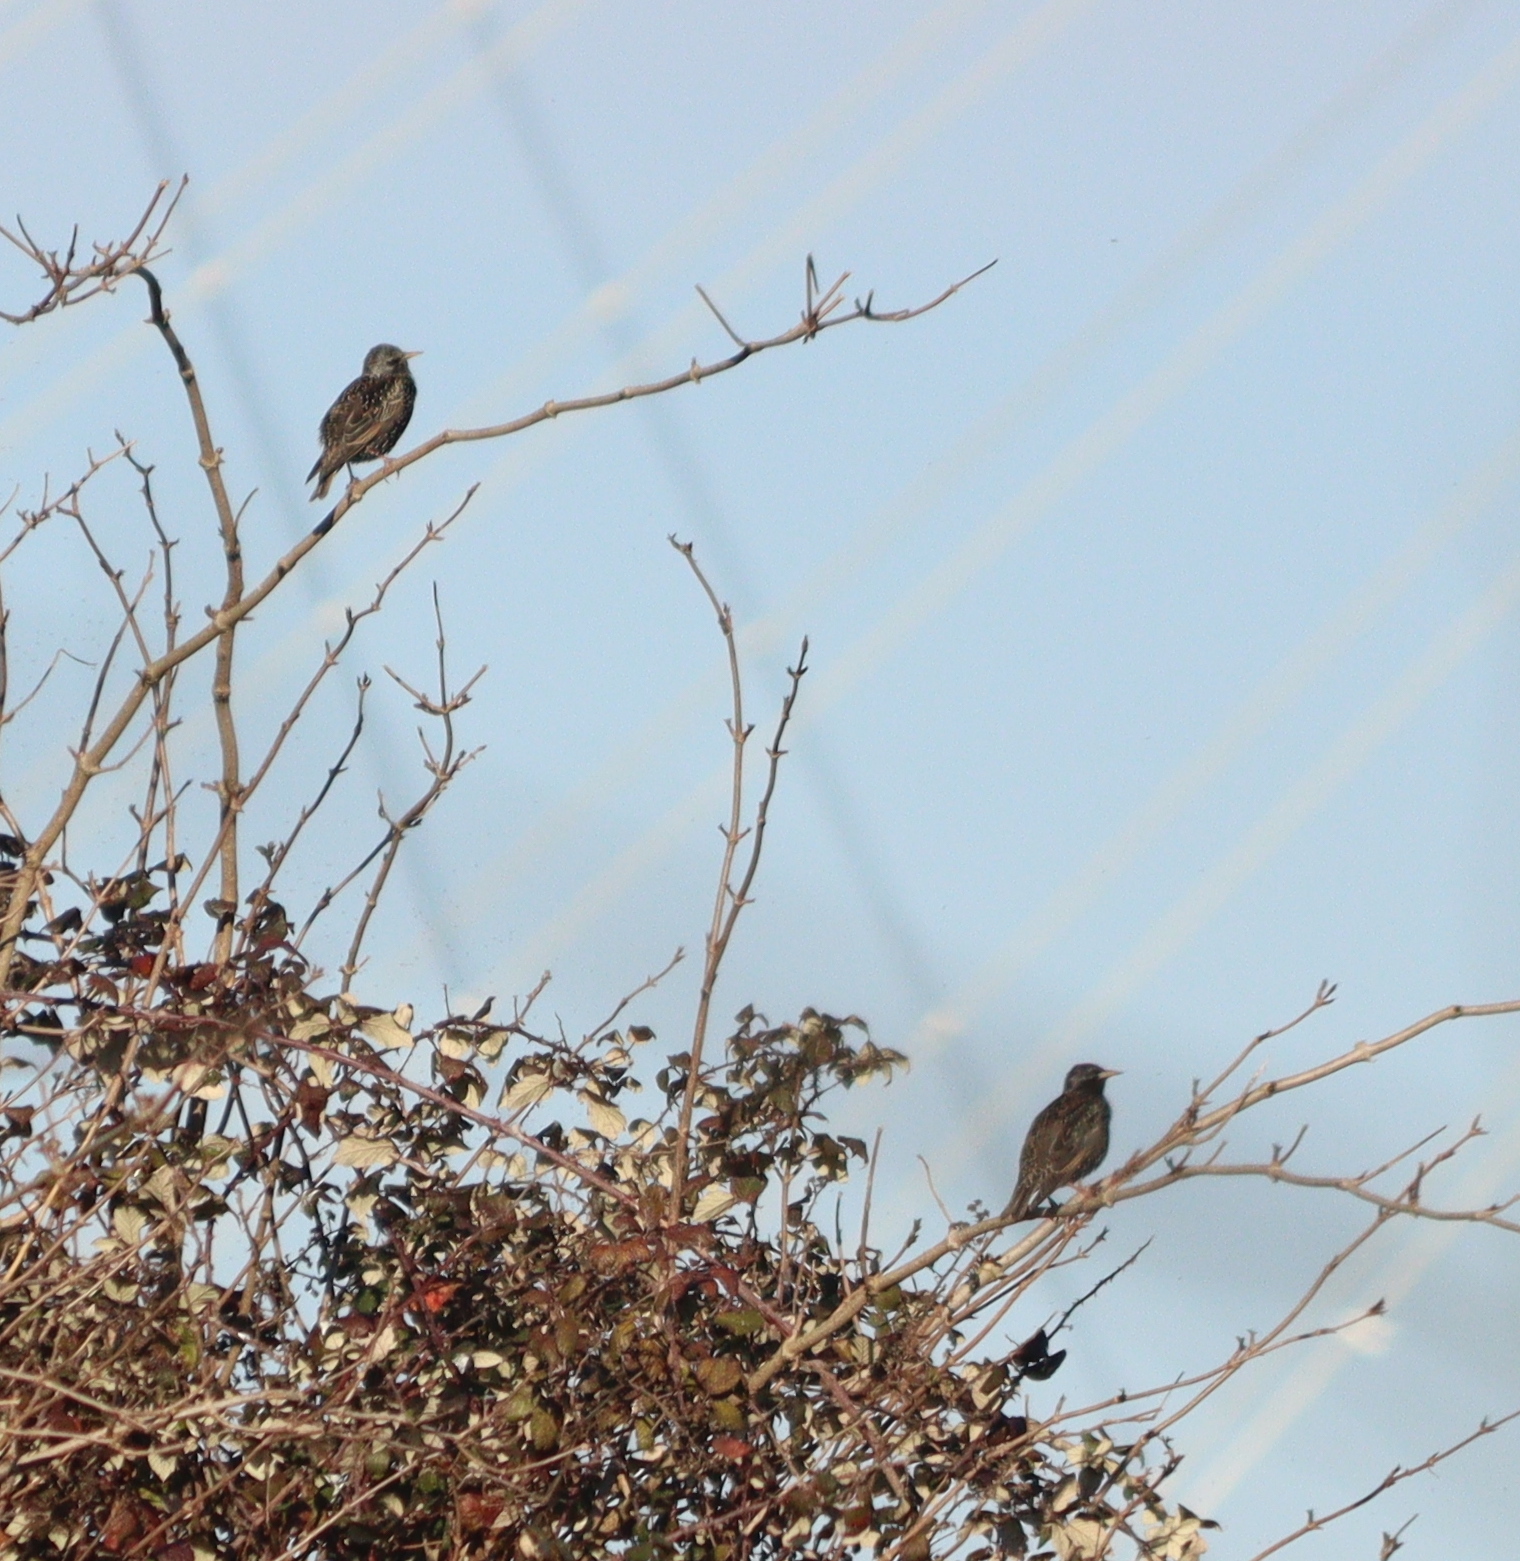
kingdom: Animalia
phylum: Chordata
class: Aves
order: Passeriformes
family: Sturnidae
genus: Sturnus
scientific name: Sturnus vulgaris
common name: Common starling
